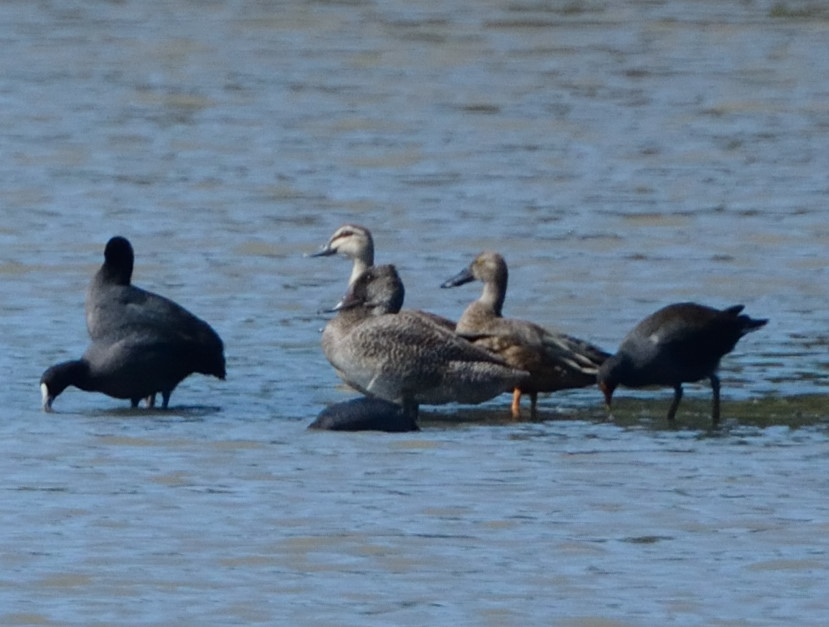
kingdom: Animalia
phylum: Chordata
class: Aves
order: Anseriformes
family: Anatidae
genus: Stictonetta
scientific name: Stictonetta naevosa
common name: Freckled duck
